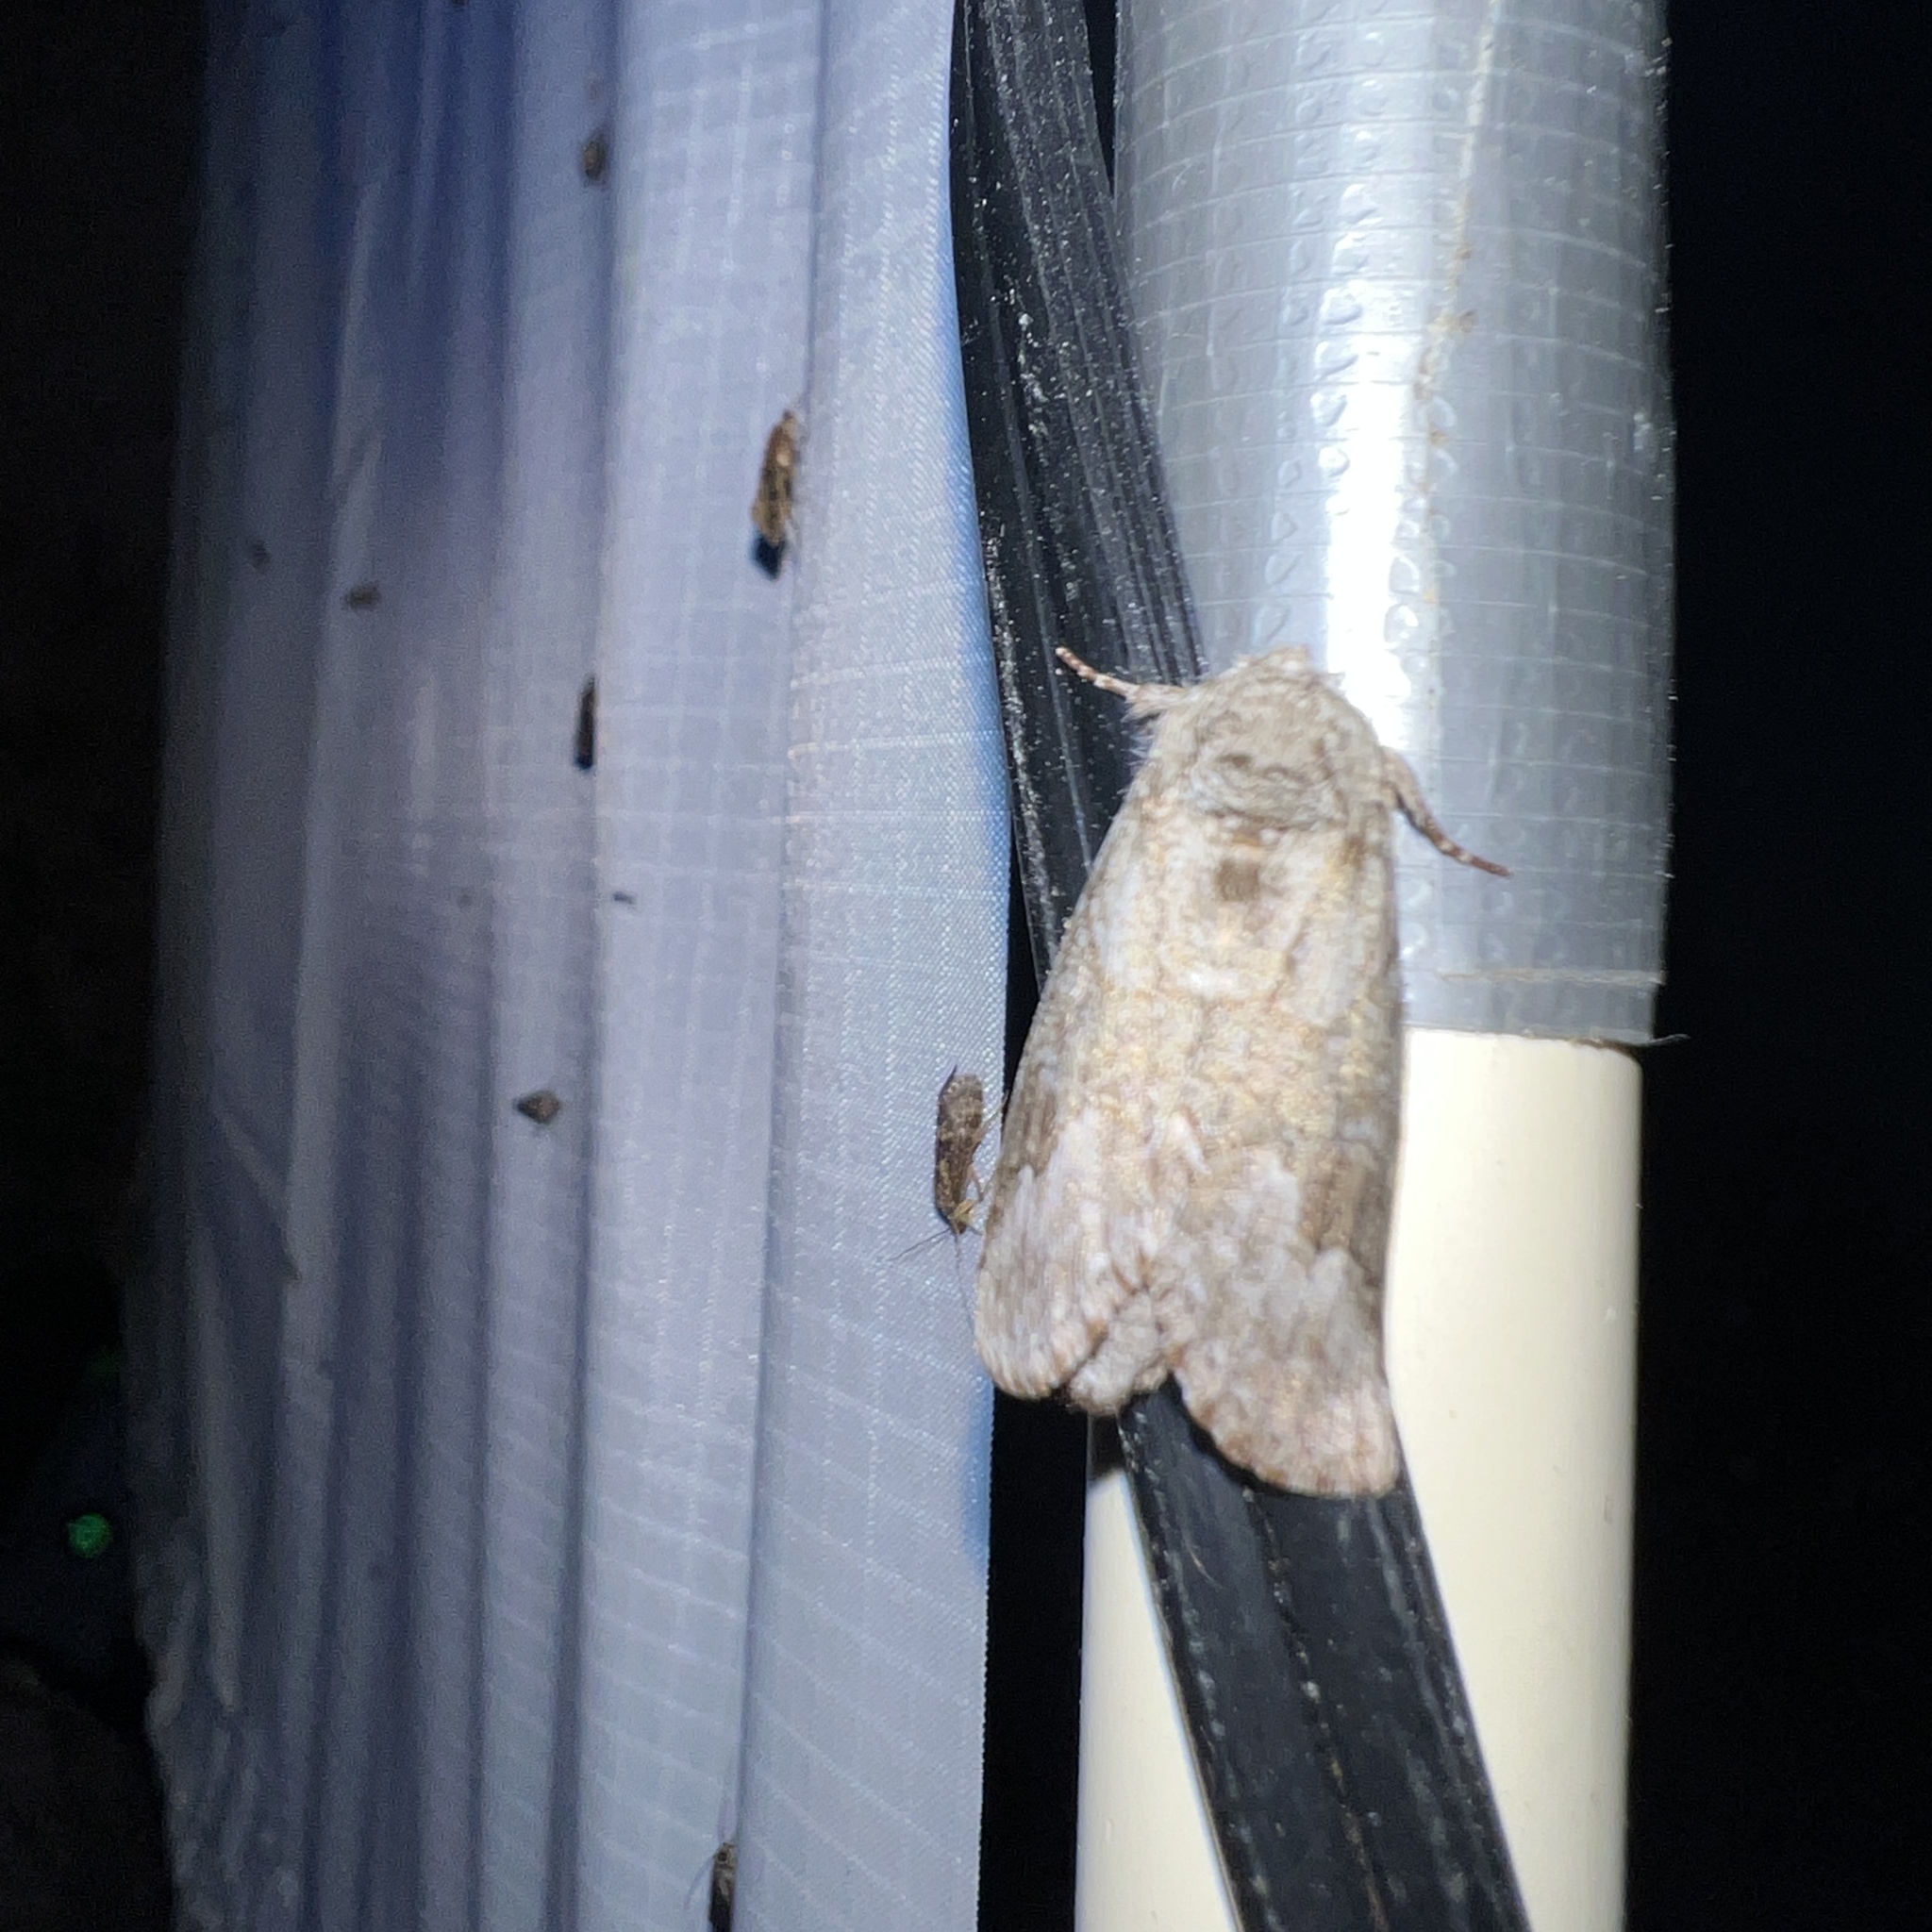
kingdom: Animalia
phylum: Arthropoda
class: Insecta
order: Lepidoptera
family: Notodontidae
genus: Lochmaeus
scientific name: Lochmaeus bilineata
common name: Double-lined prominent
